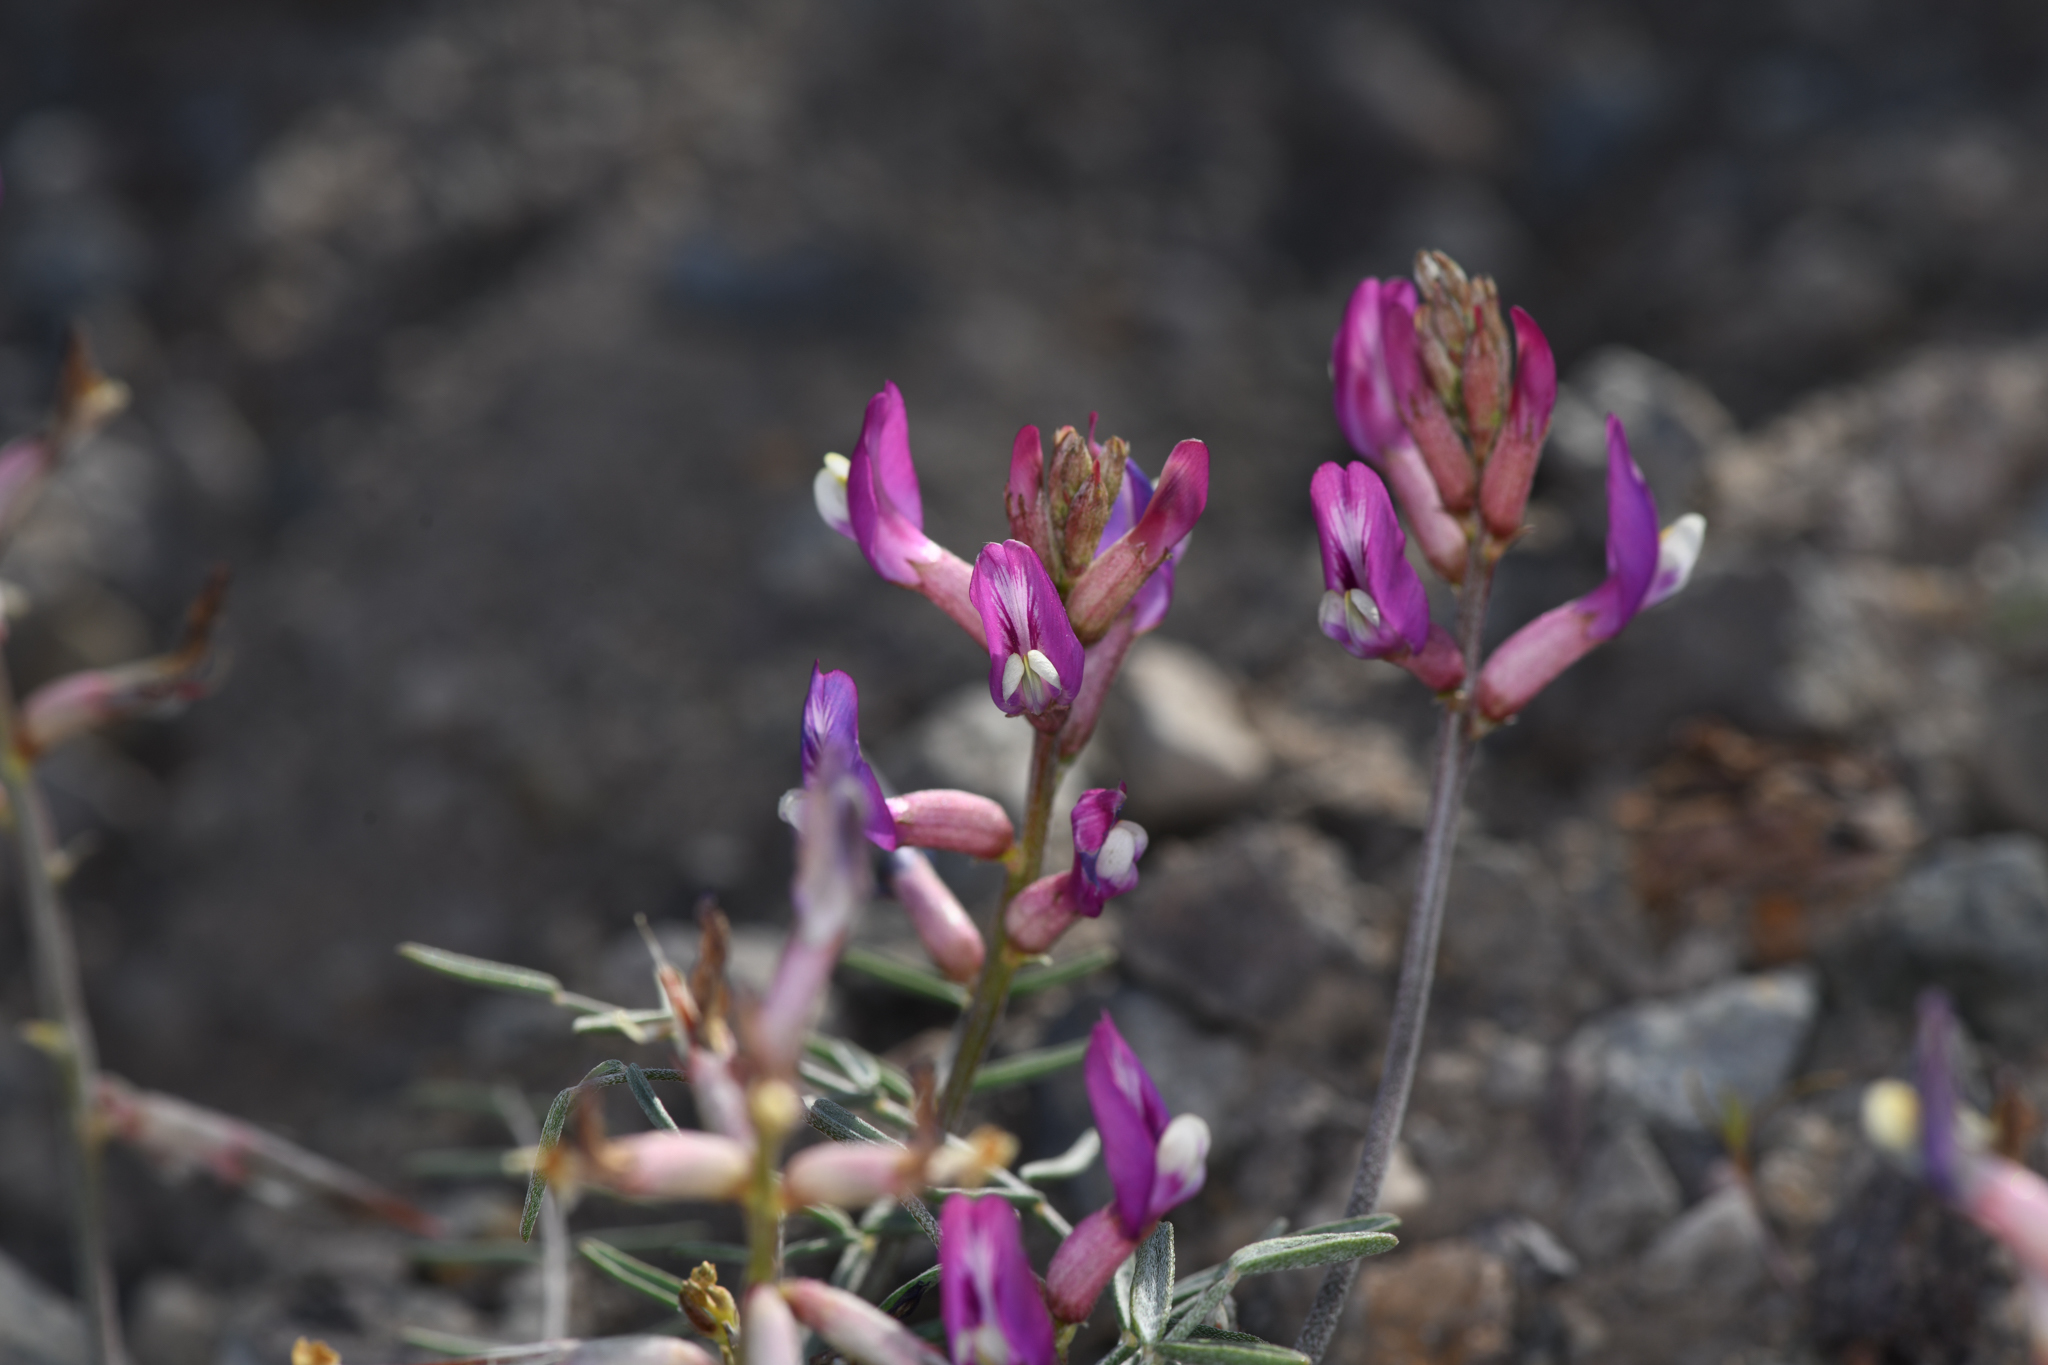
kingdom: Plantae
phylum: Tracheophyta
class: Magnoliopsida
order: Fabales
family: Fabaceae
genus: Astragalus
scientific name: Astragalus casei
